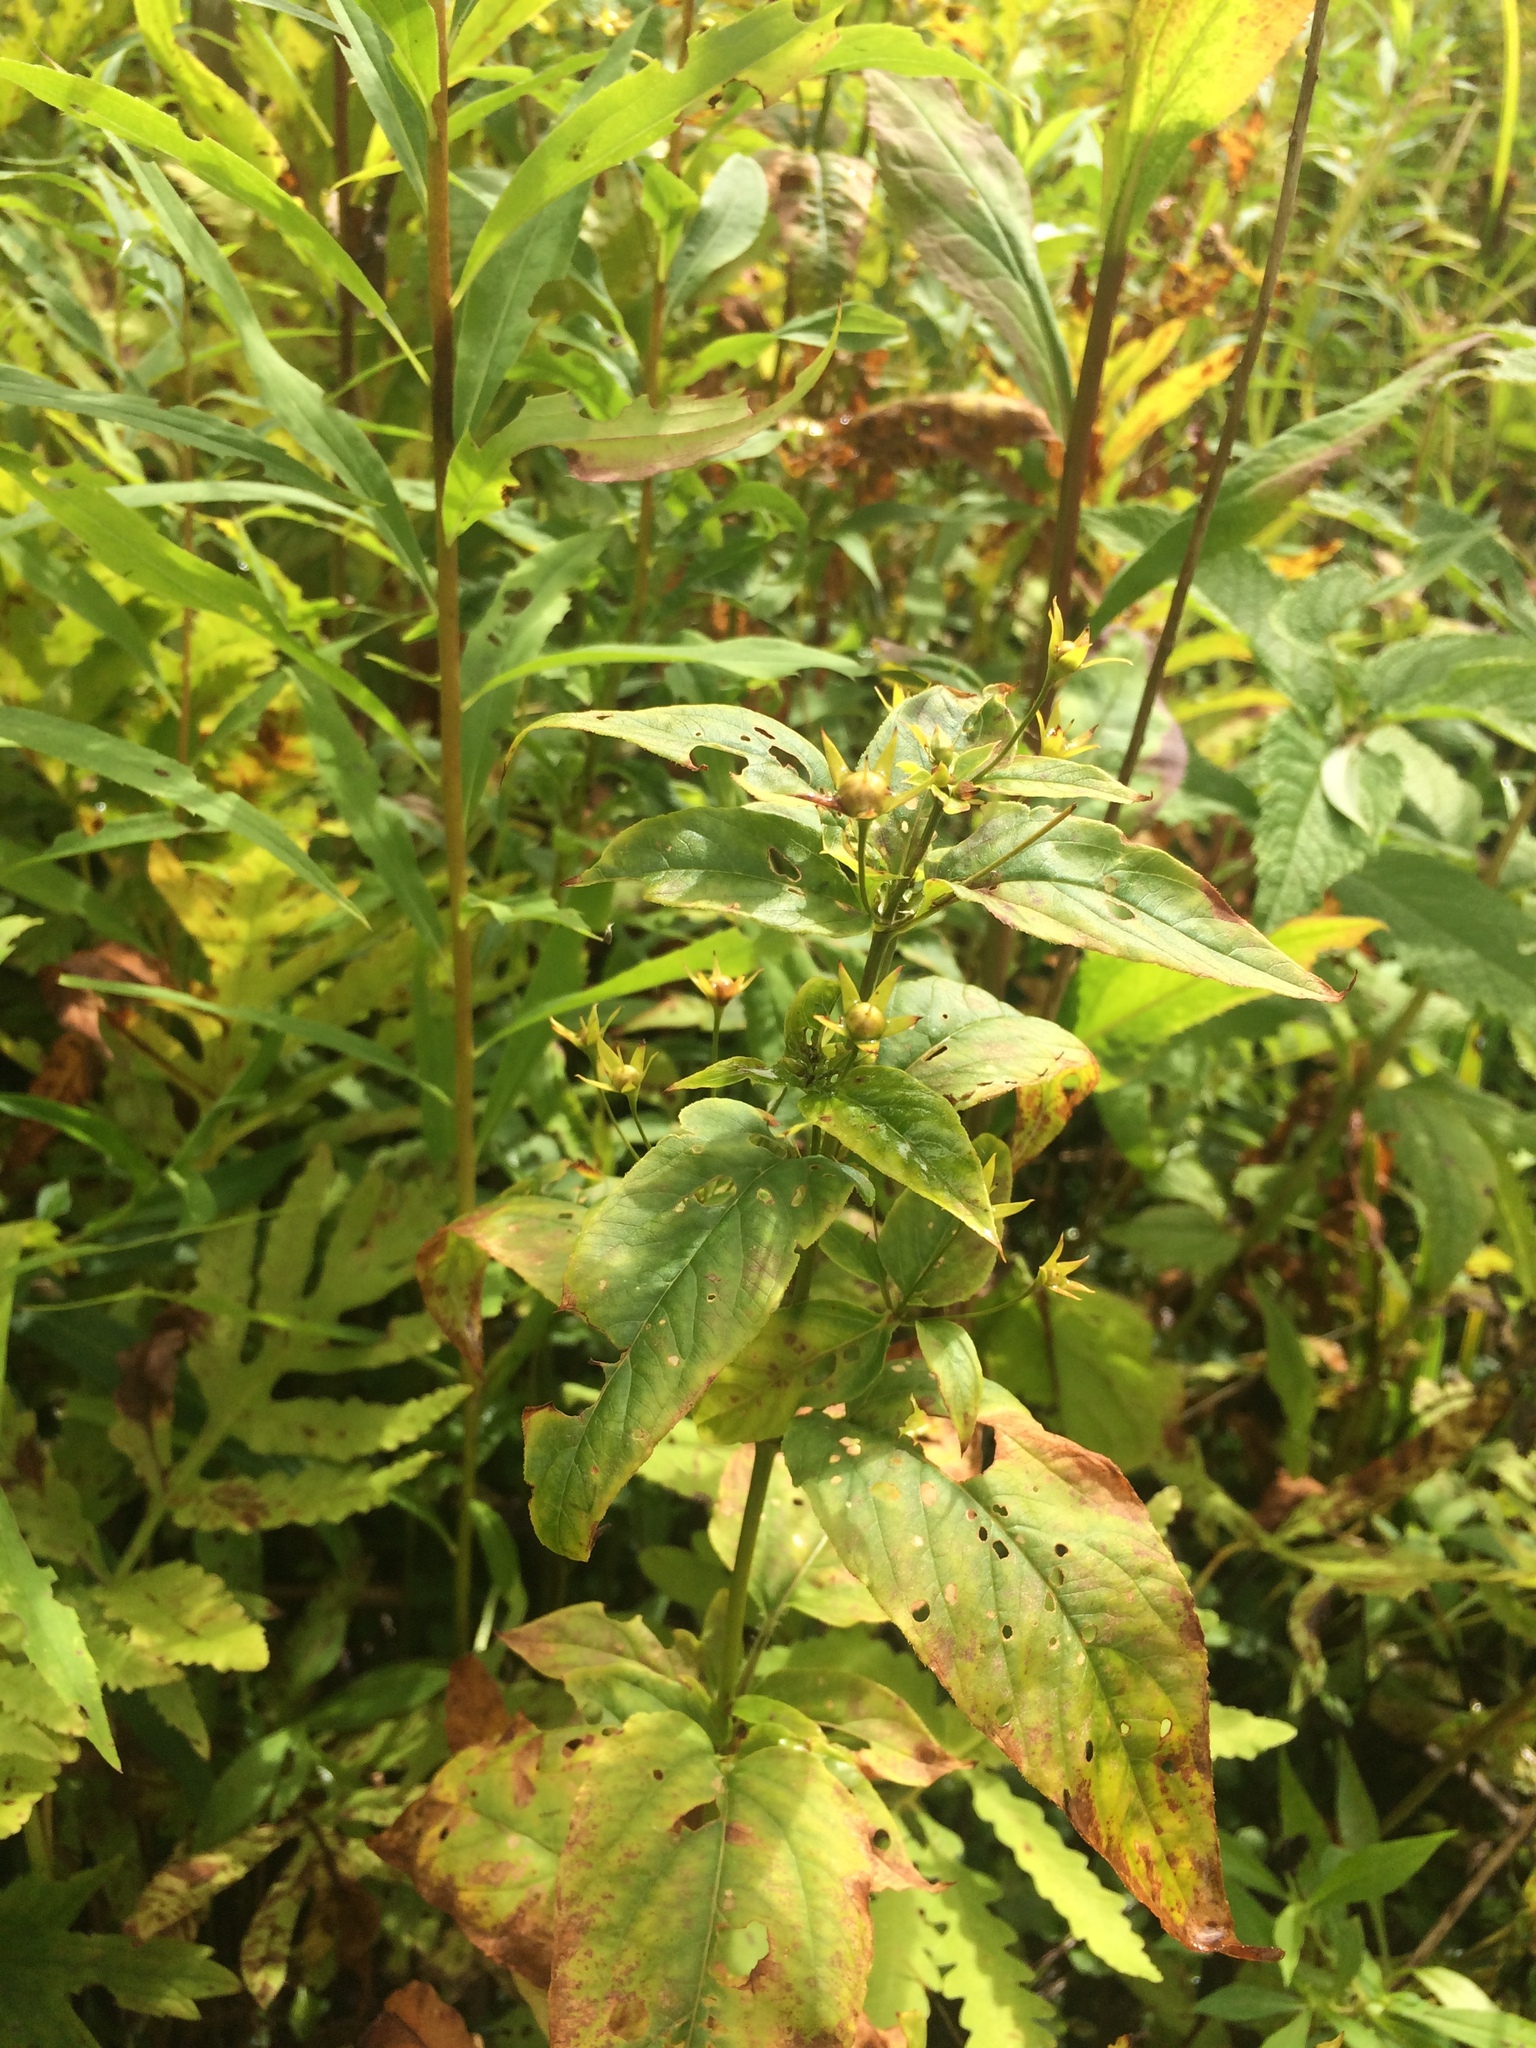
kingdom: Plantae
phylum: Tracheophyta
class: Magnoliopsida
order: Ericales
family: Primulaceae
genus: Lysimachia
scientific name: Lysimachia ciliata
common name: Fringed loosestrife
